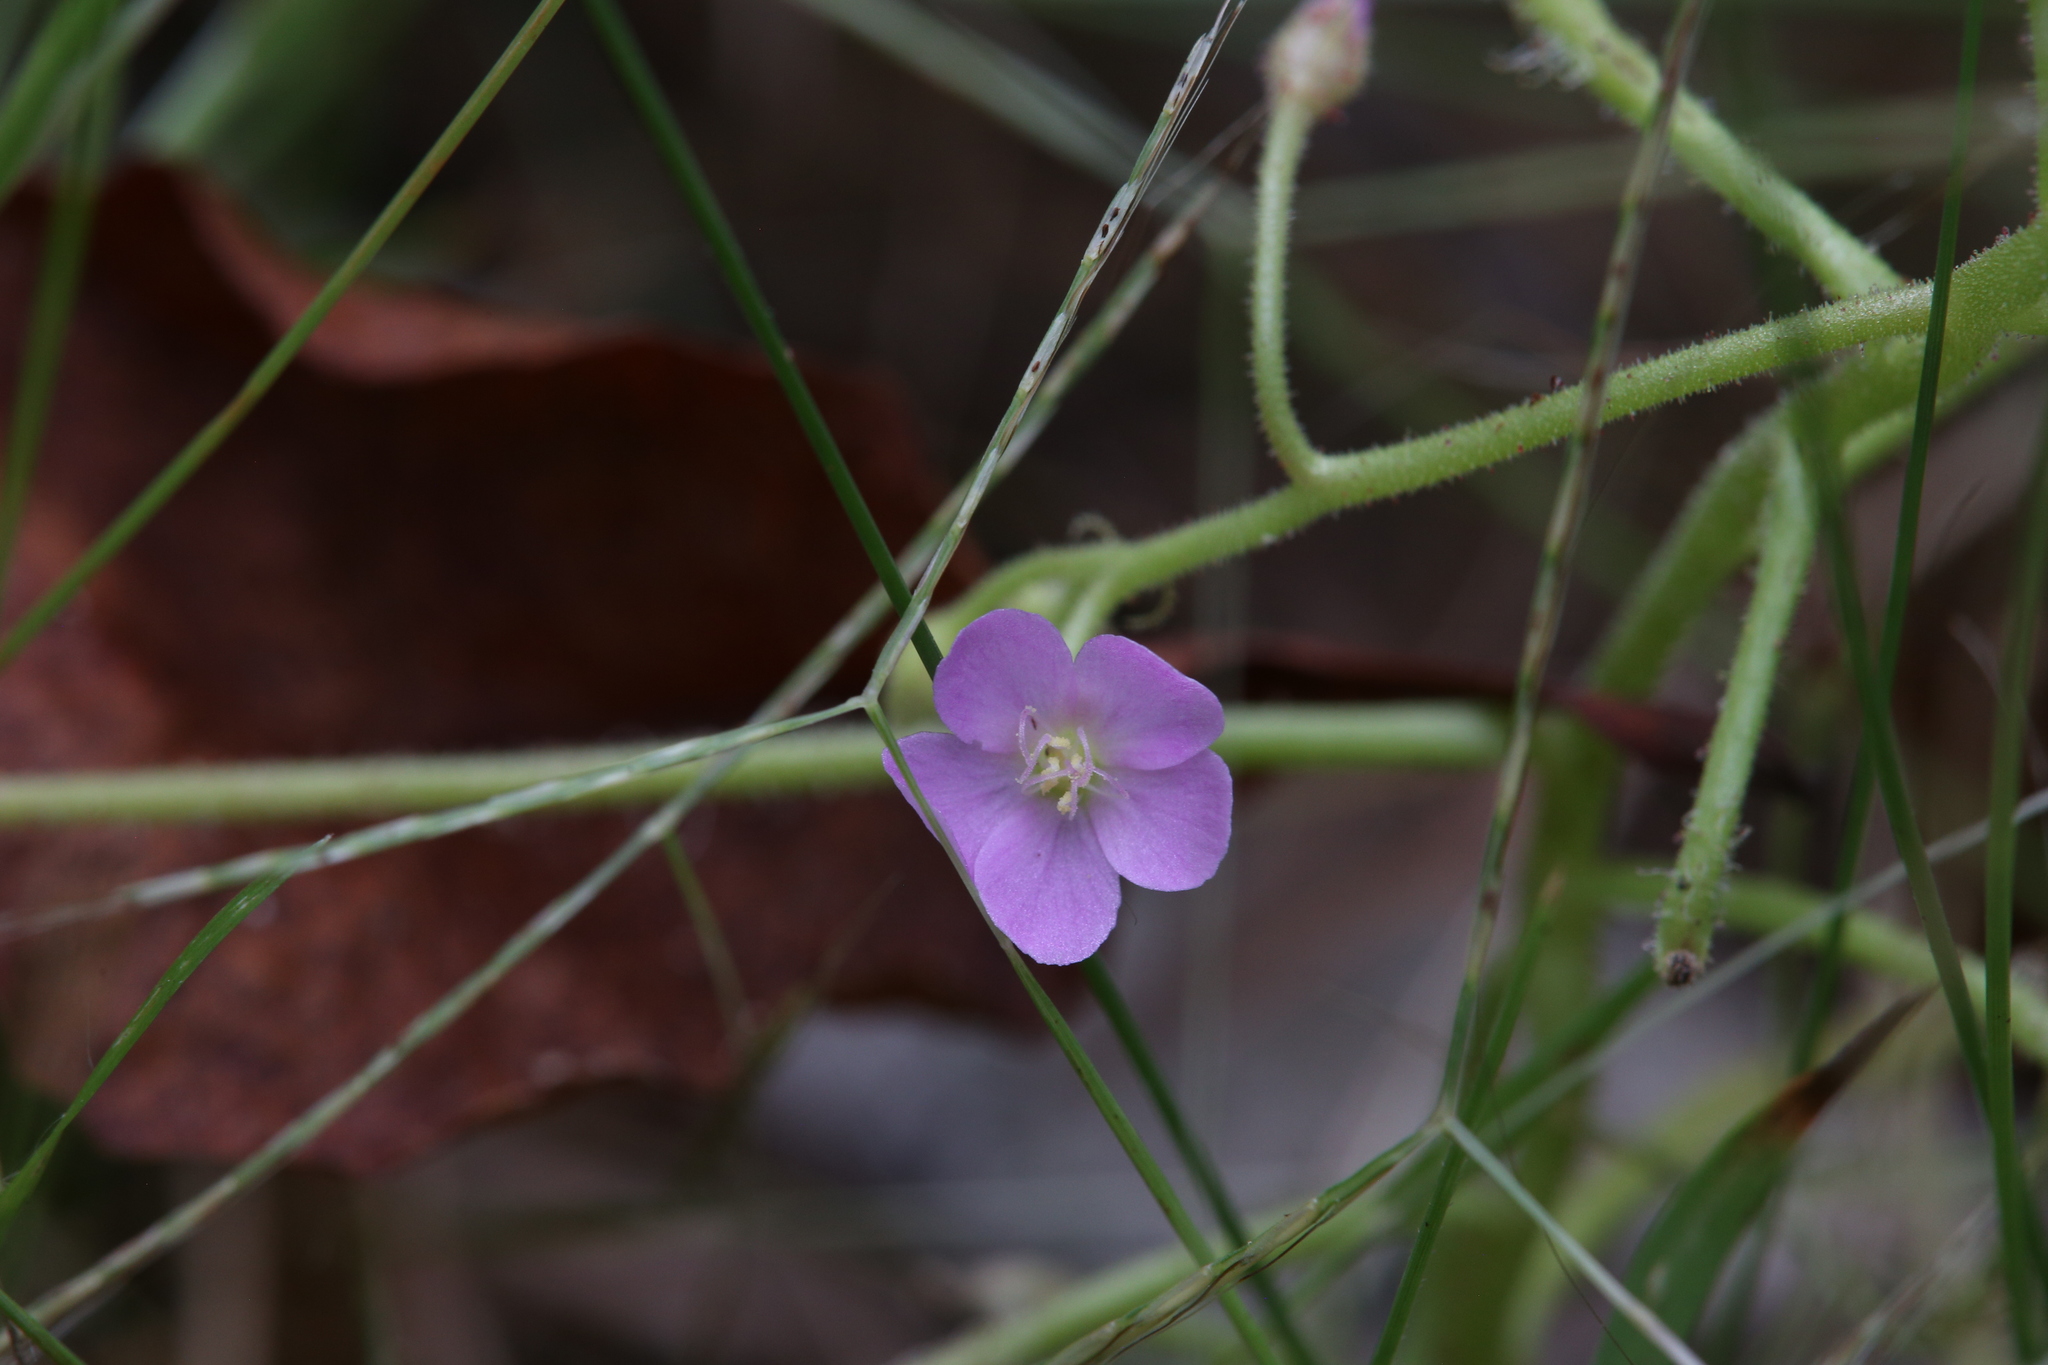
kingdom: Plantae
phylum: Tracheophyta
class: Magnoliopsida
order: Caryophyllales
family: Droseraceae
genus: Drosera
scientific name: Drosera indica
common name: Indian sundew
